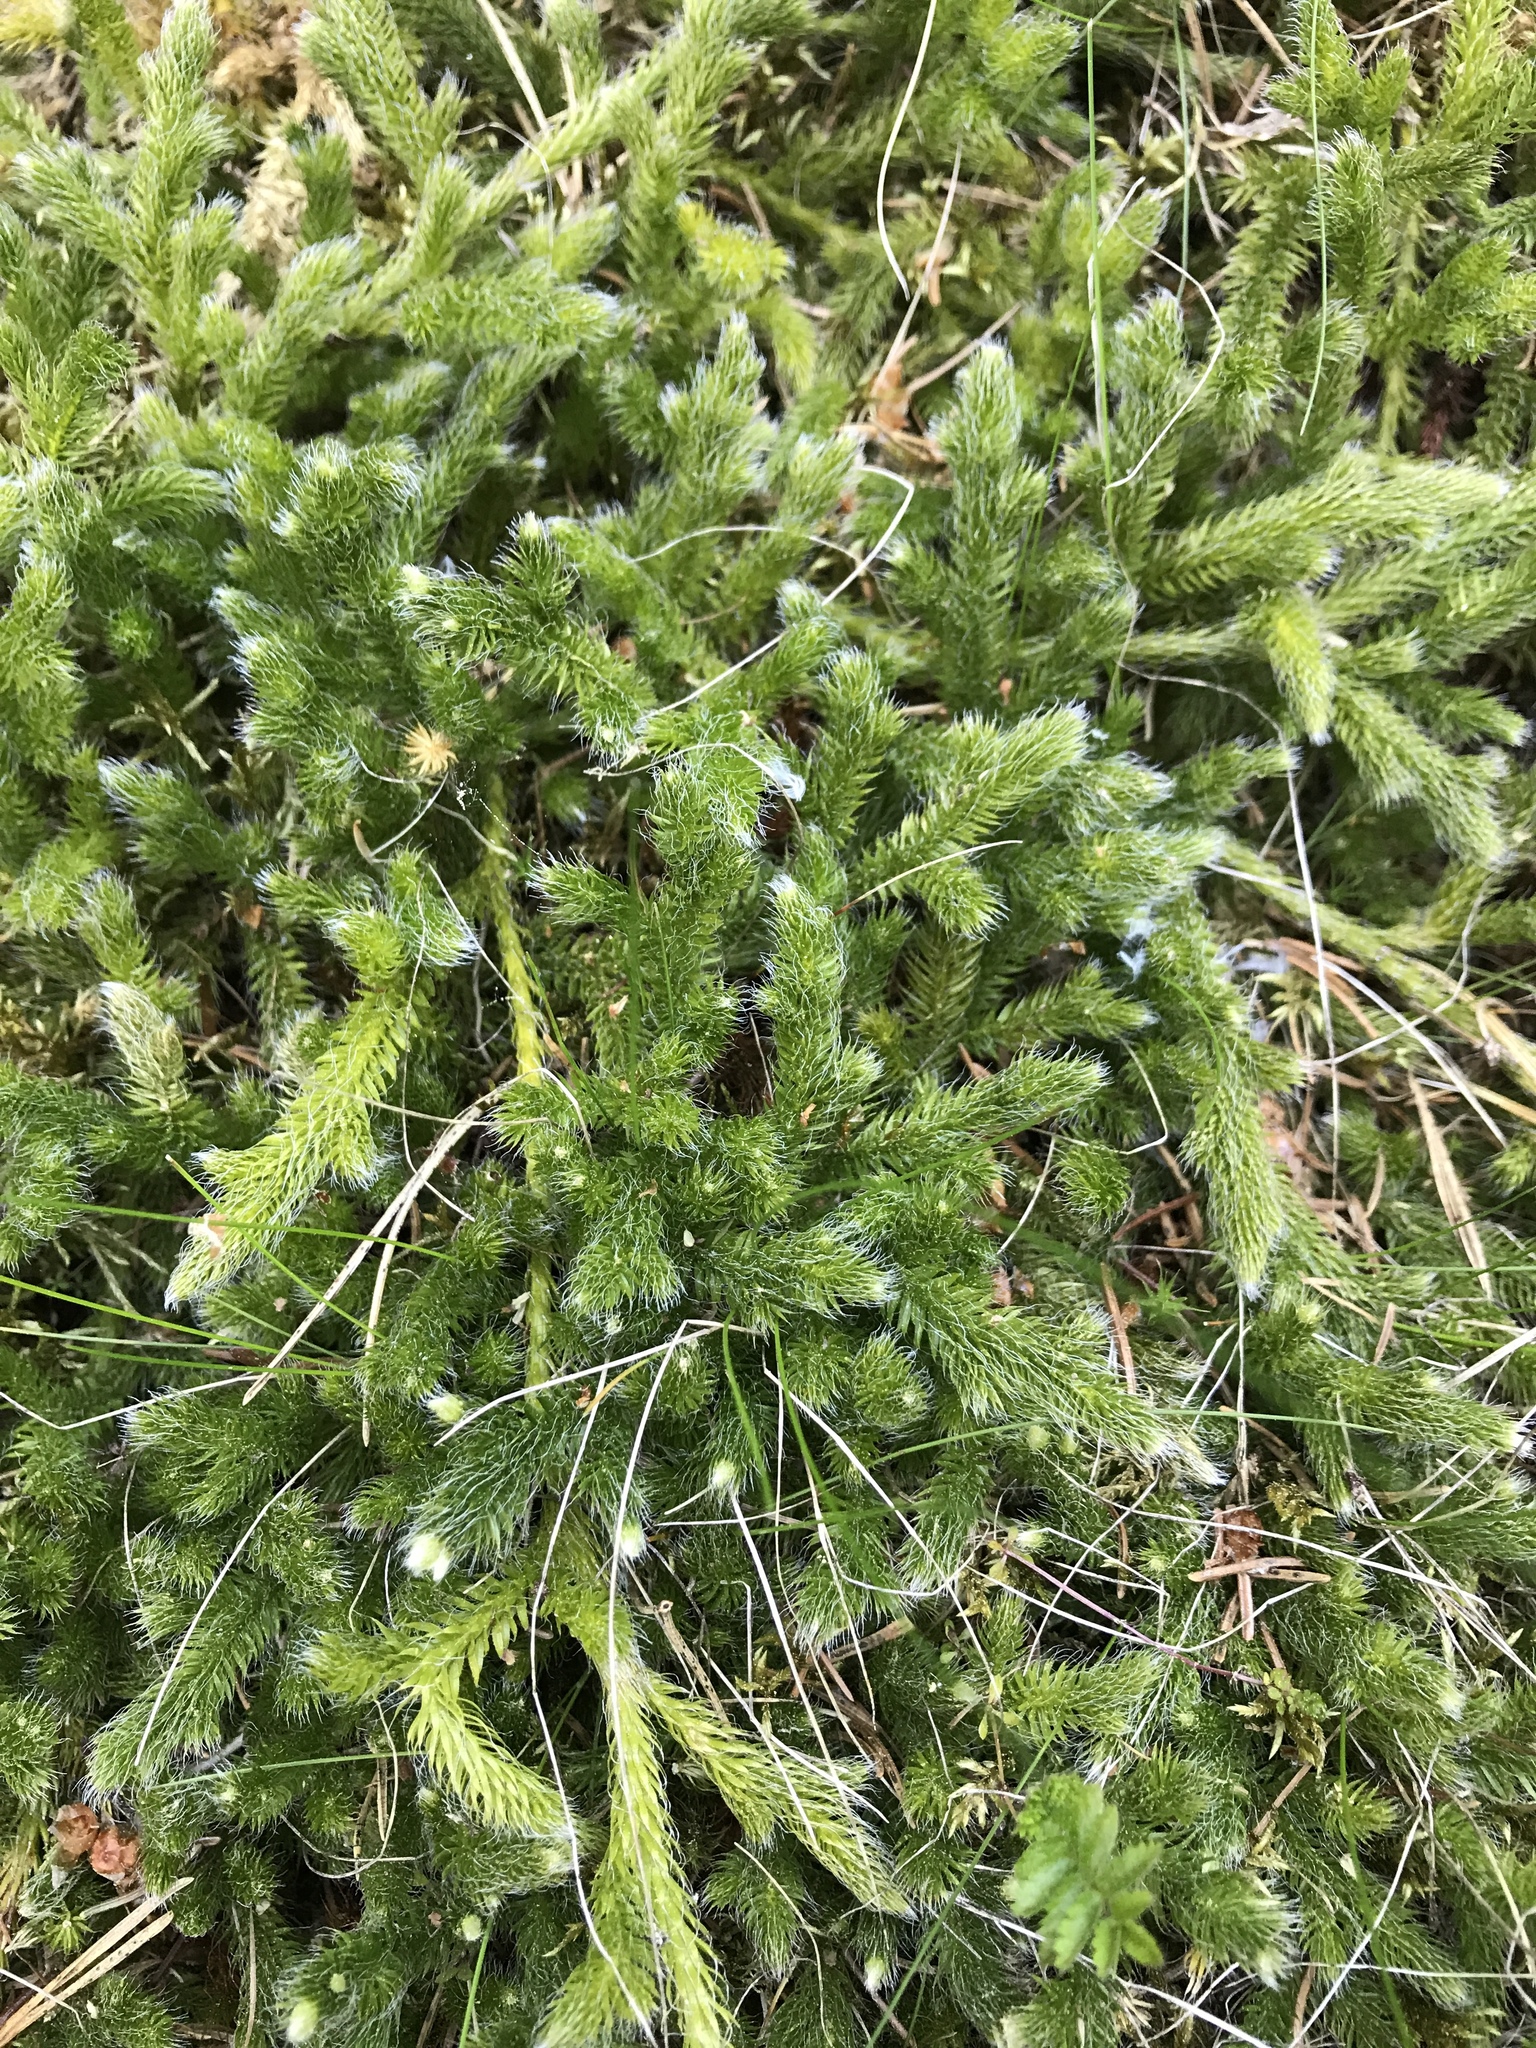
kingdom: Plantae
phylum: Tracheophyta
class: Lycopodiopsida
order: Lycopodiales
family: Lycopodiaceae
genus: Lycopodium
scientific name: Lycopodium clavatum
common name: Stag's-horn clubmoss
